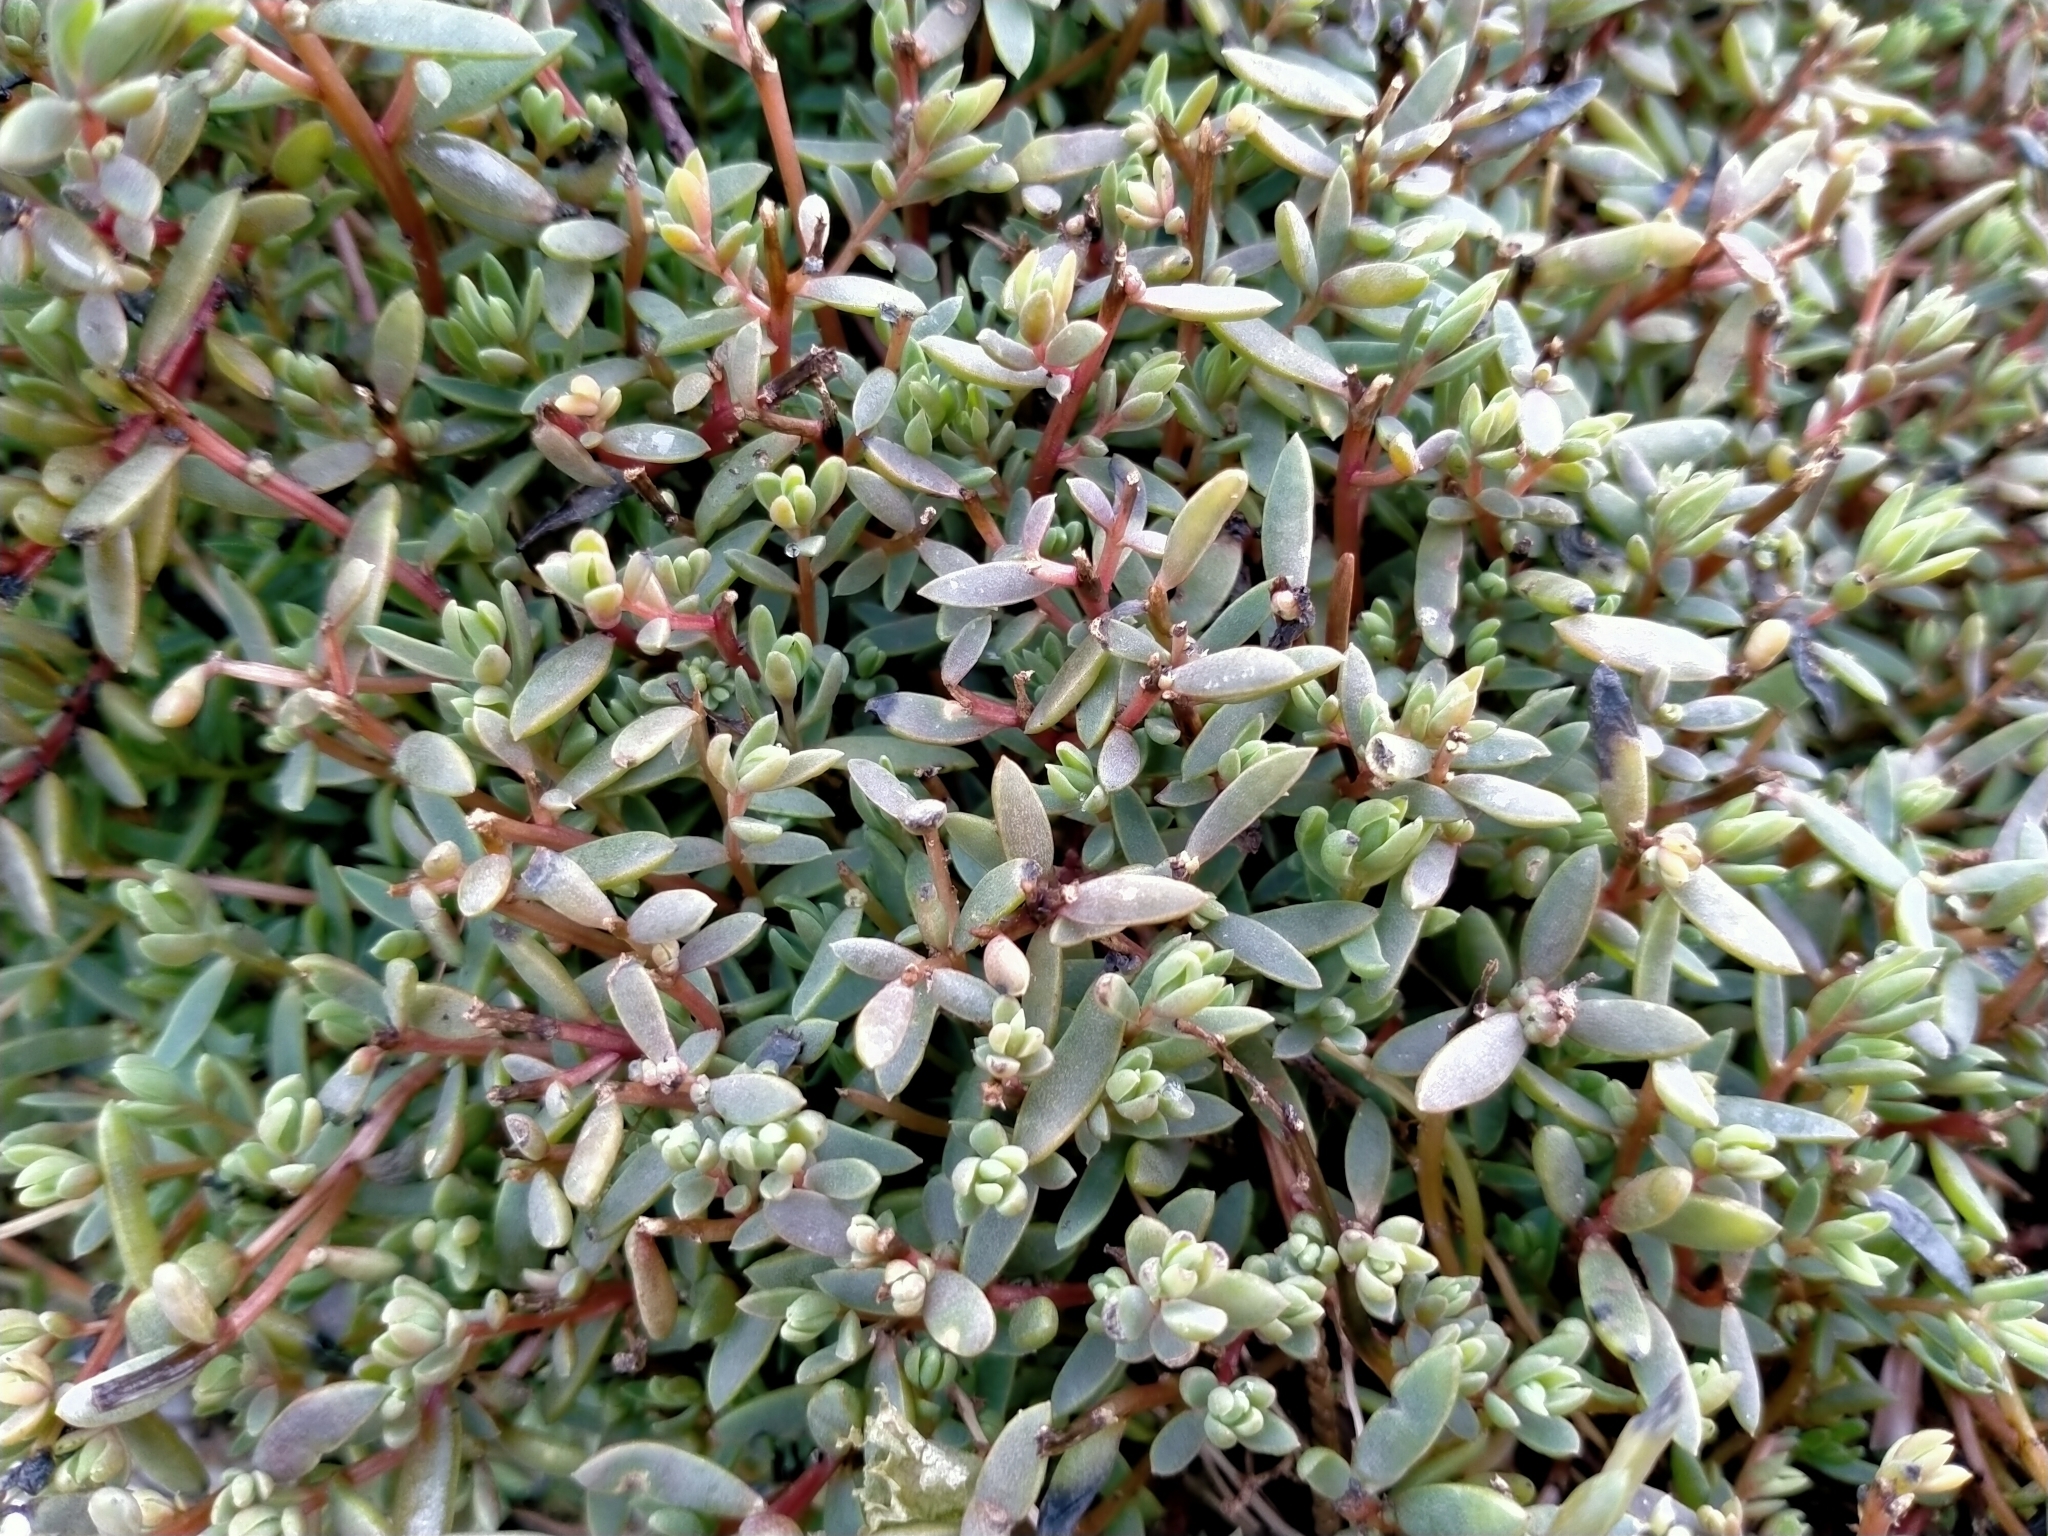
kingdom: Plantae
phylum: Tracheophyta
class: Magnoliopsida
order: Caryophyllales
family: Amaranthaceae
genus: Suaeda
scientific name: Suaeda novae-zelandiae
